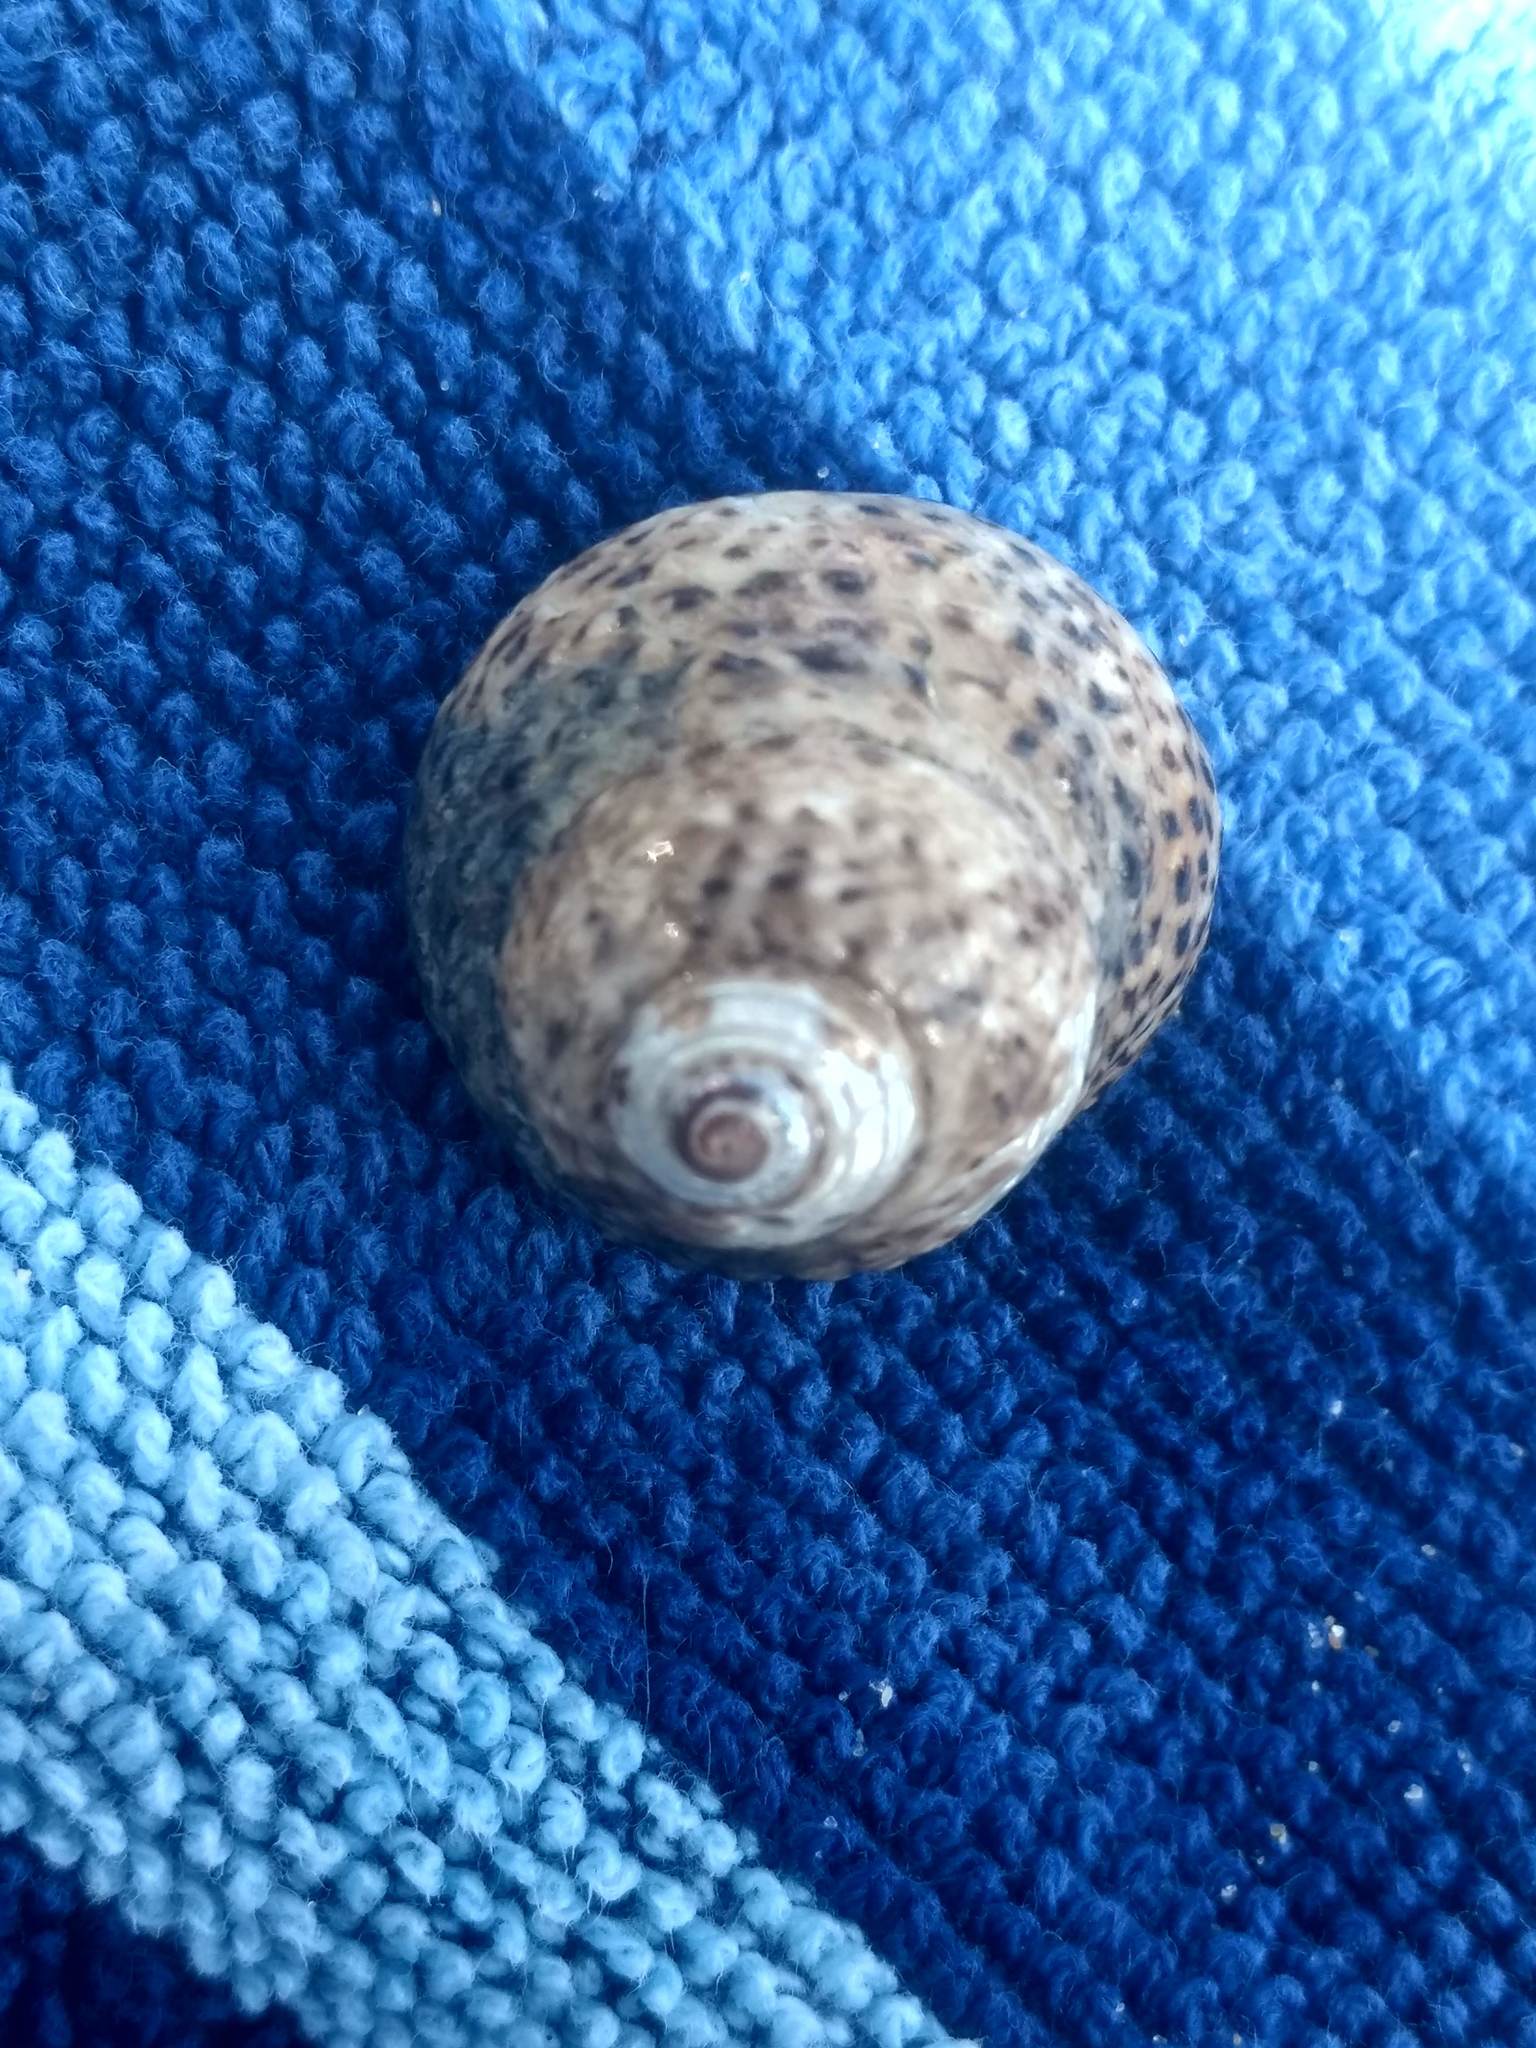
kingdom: Animalia
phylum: Mollusca
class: Gastropoda
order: Trochida
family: Tegulidae
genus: Tegula
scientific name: Tegula eiseni
